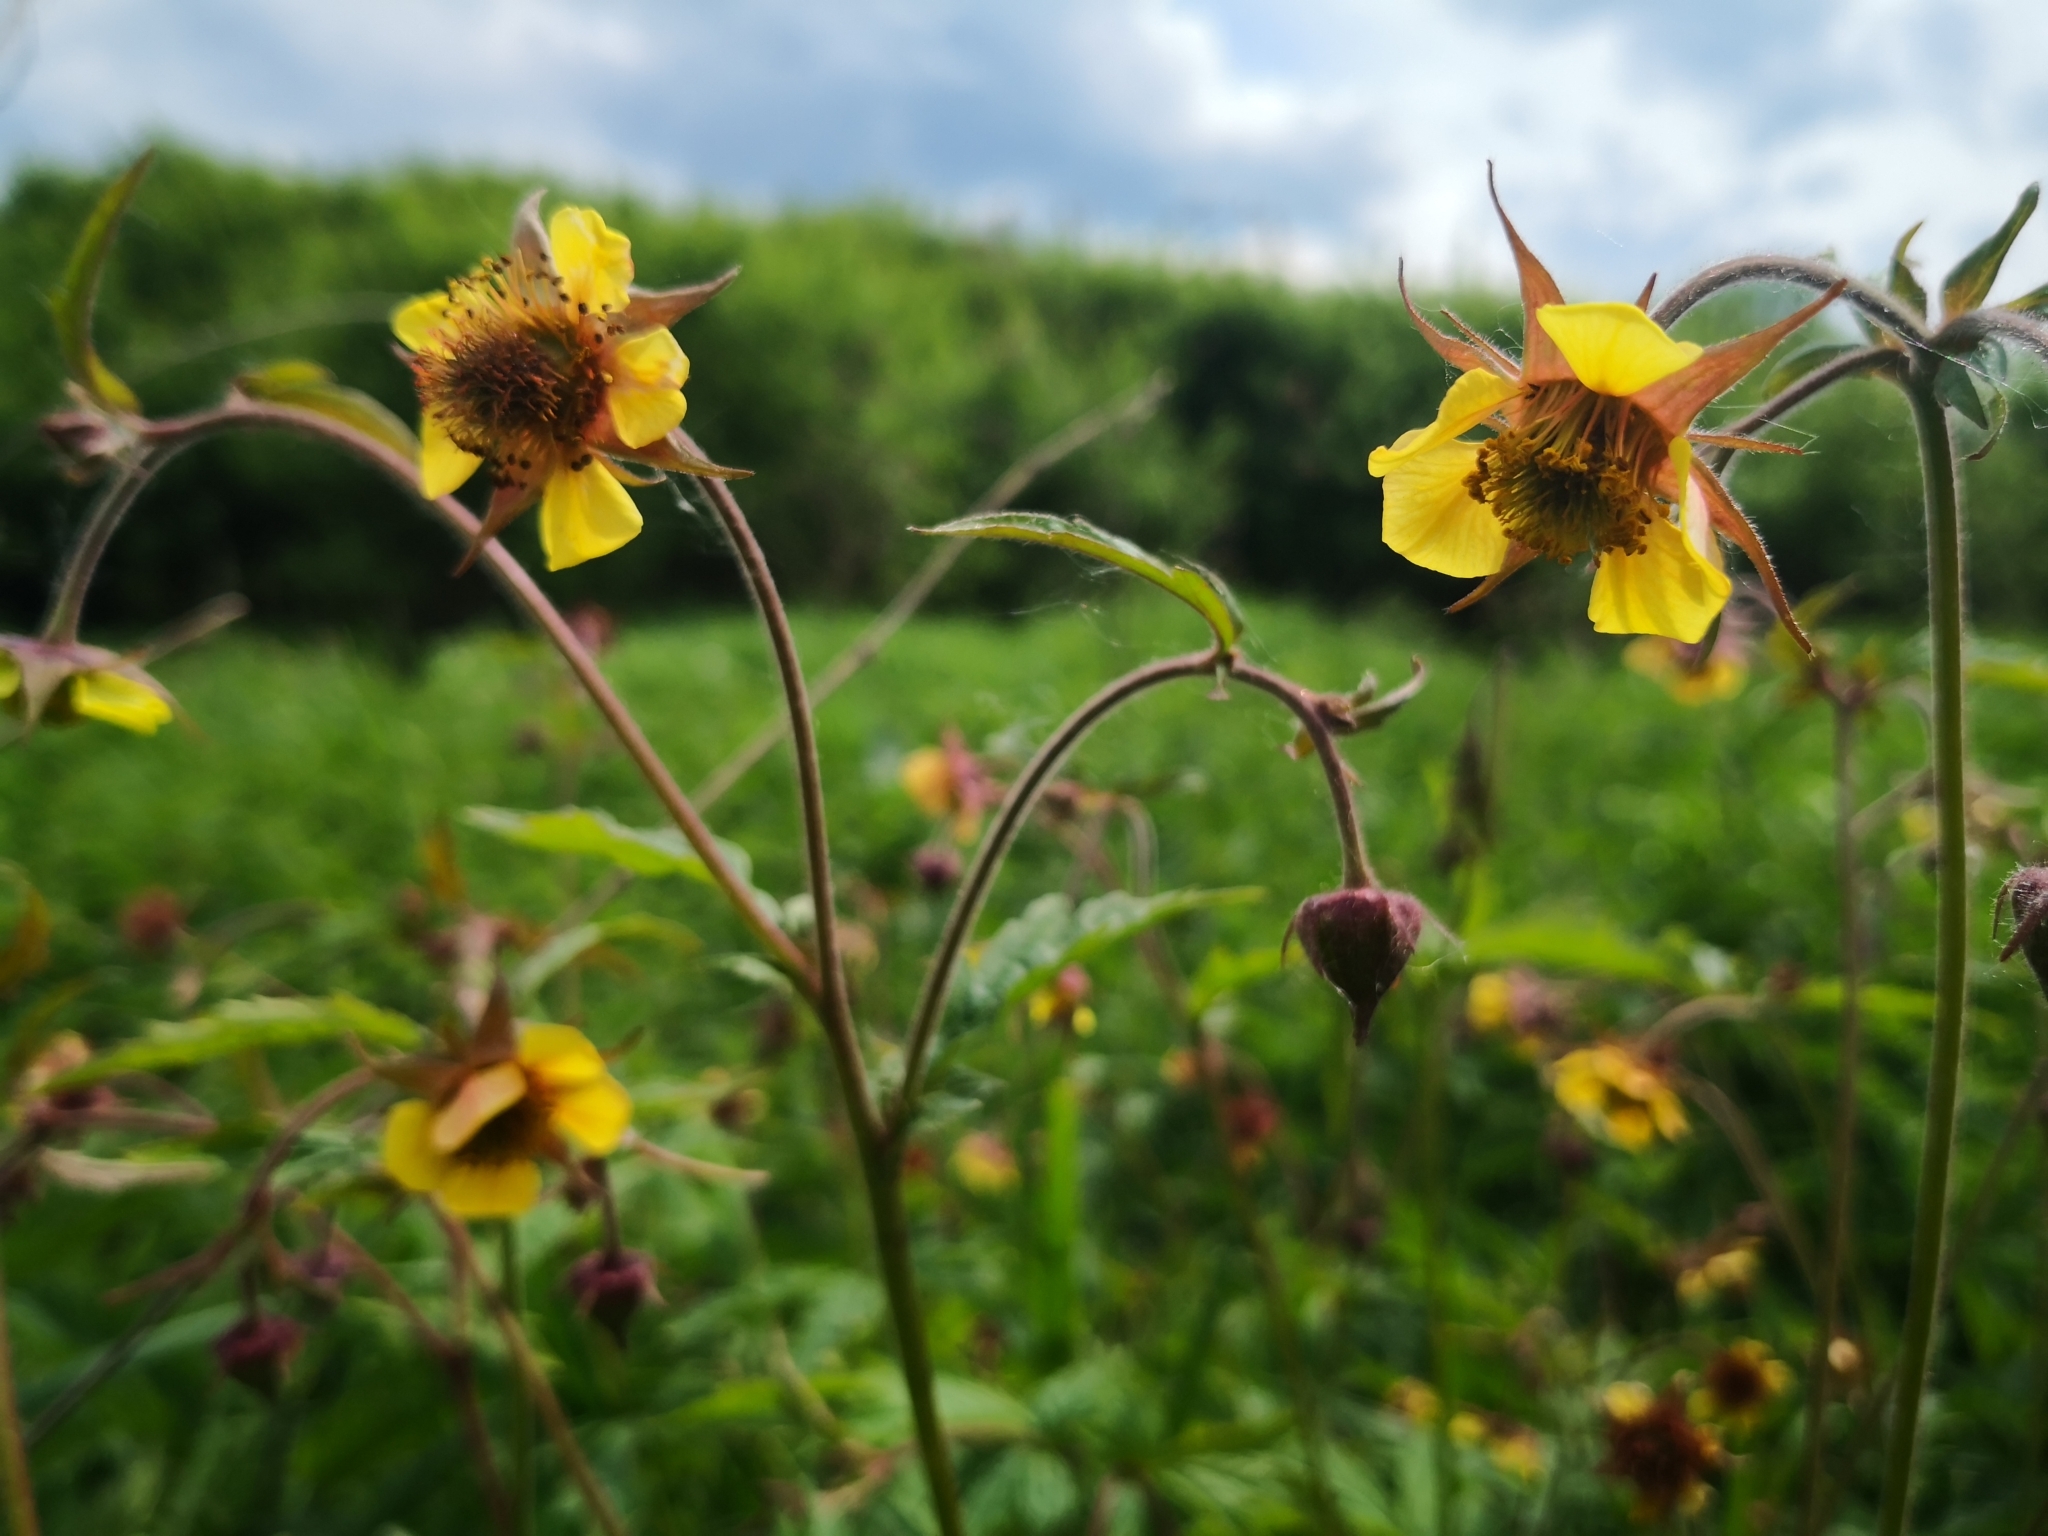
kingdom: Plantae
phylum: Tracheophyta
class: Magnoliopsida
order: Rosales
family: Rosaceae
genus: Geum
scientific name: Geum intermedium
